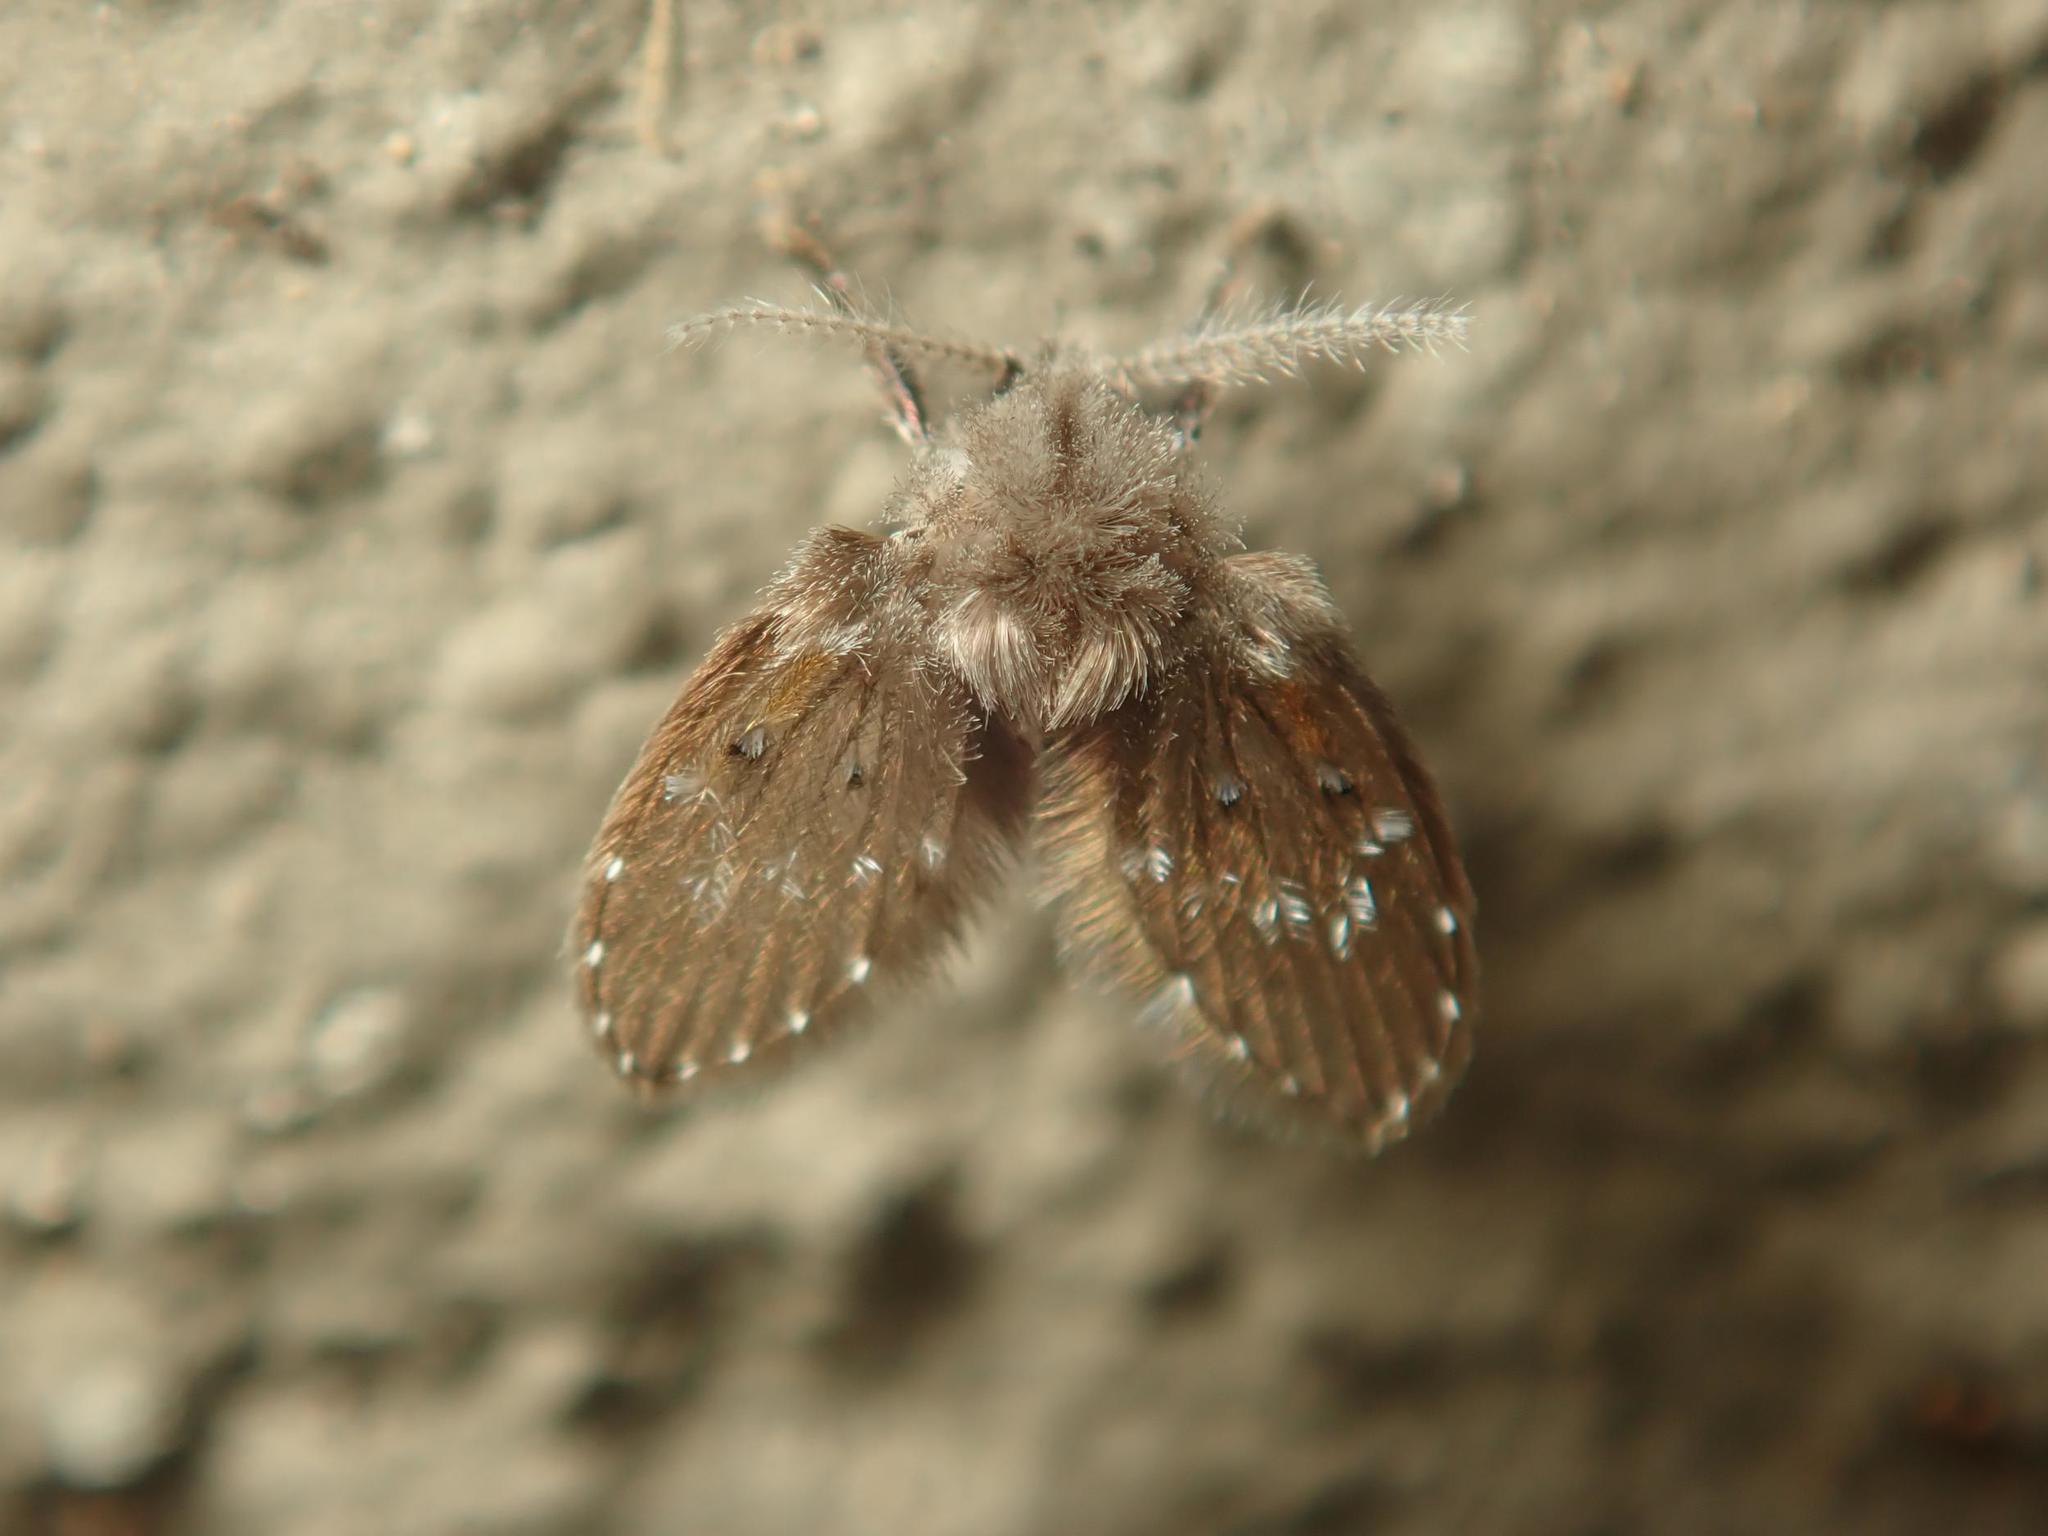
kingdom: Animalia
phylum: Arthropoda
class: Insecta
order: Diptera
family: Psychodidae
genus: Clogmia
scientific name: Clogmia albipunctatus
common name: White-spotted moth fly
